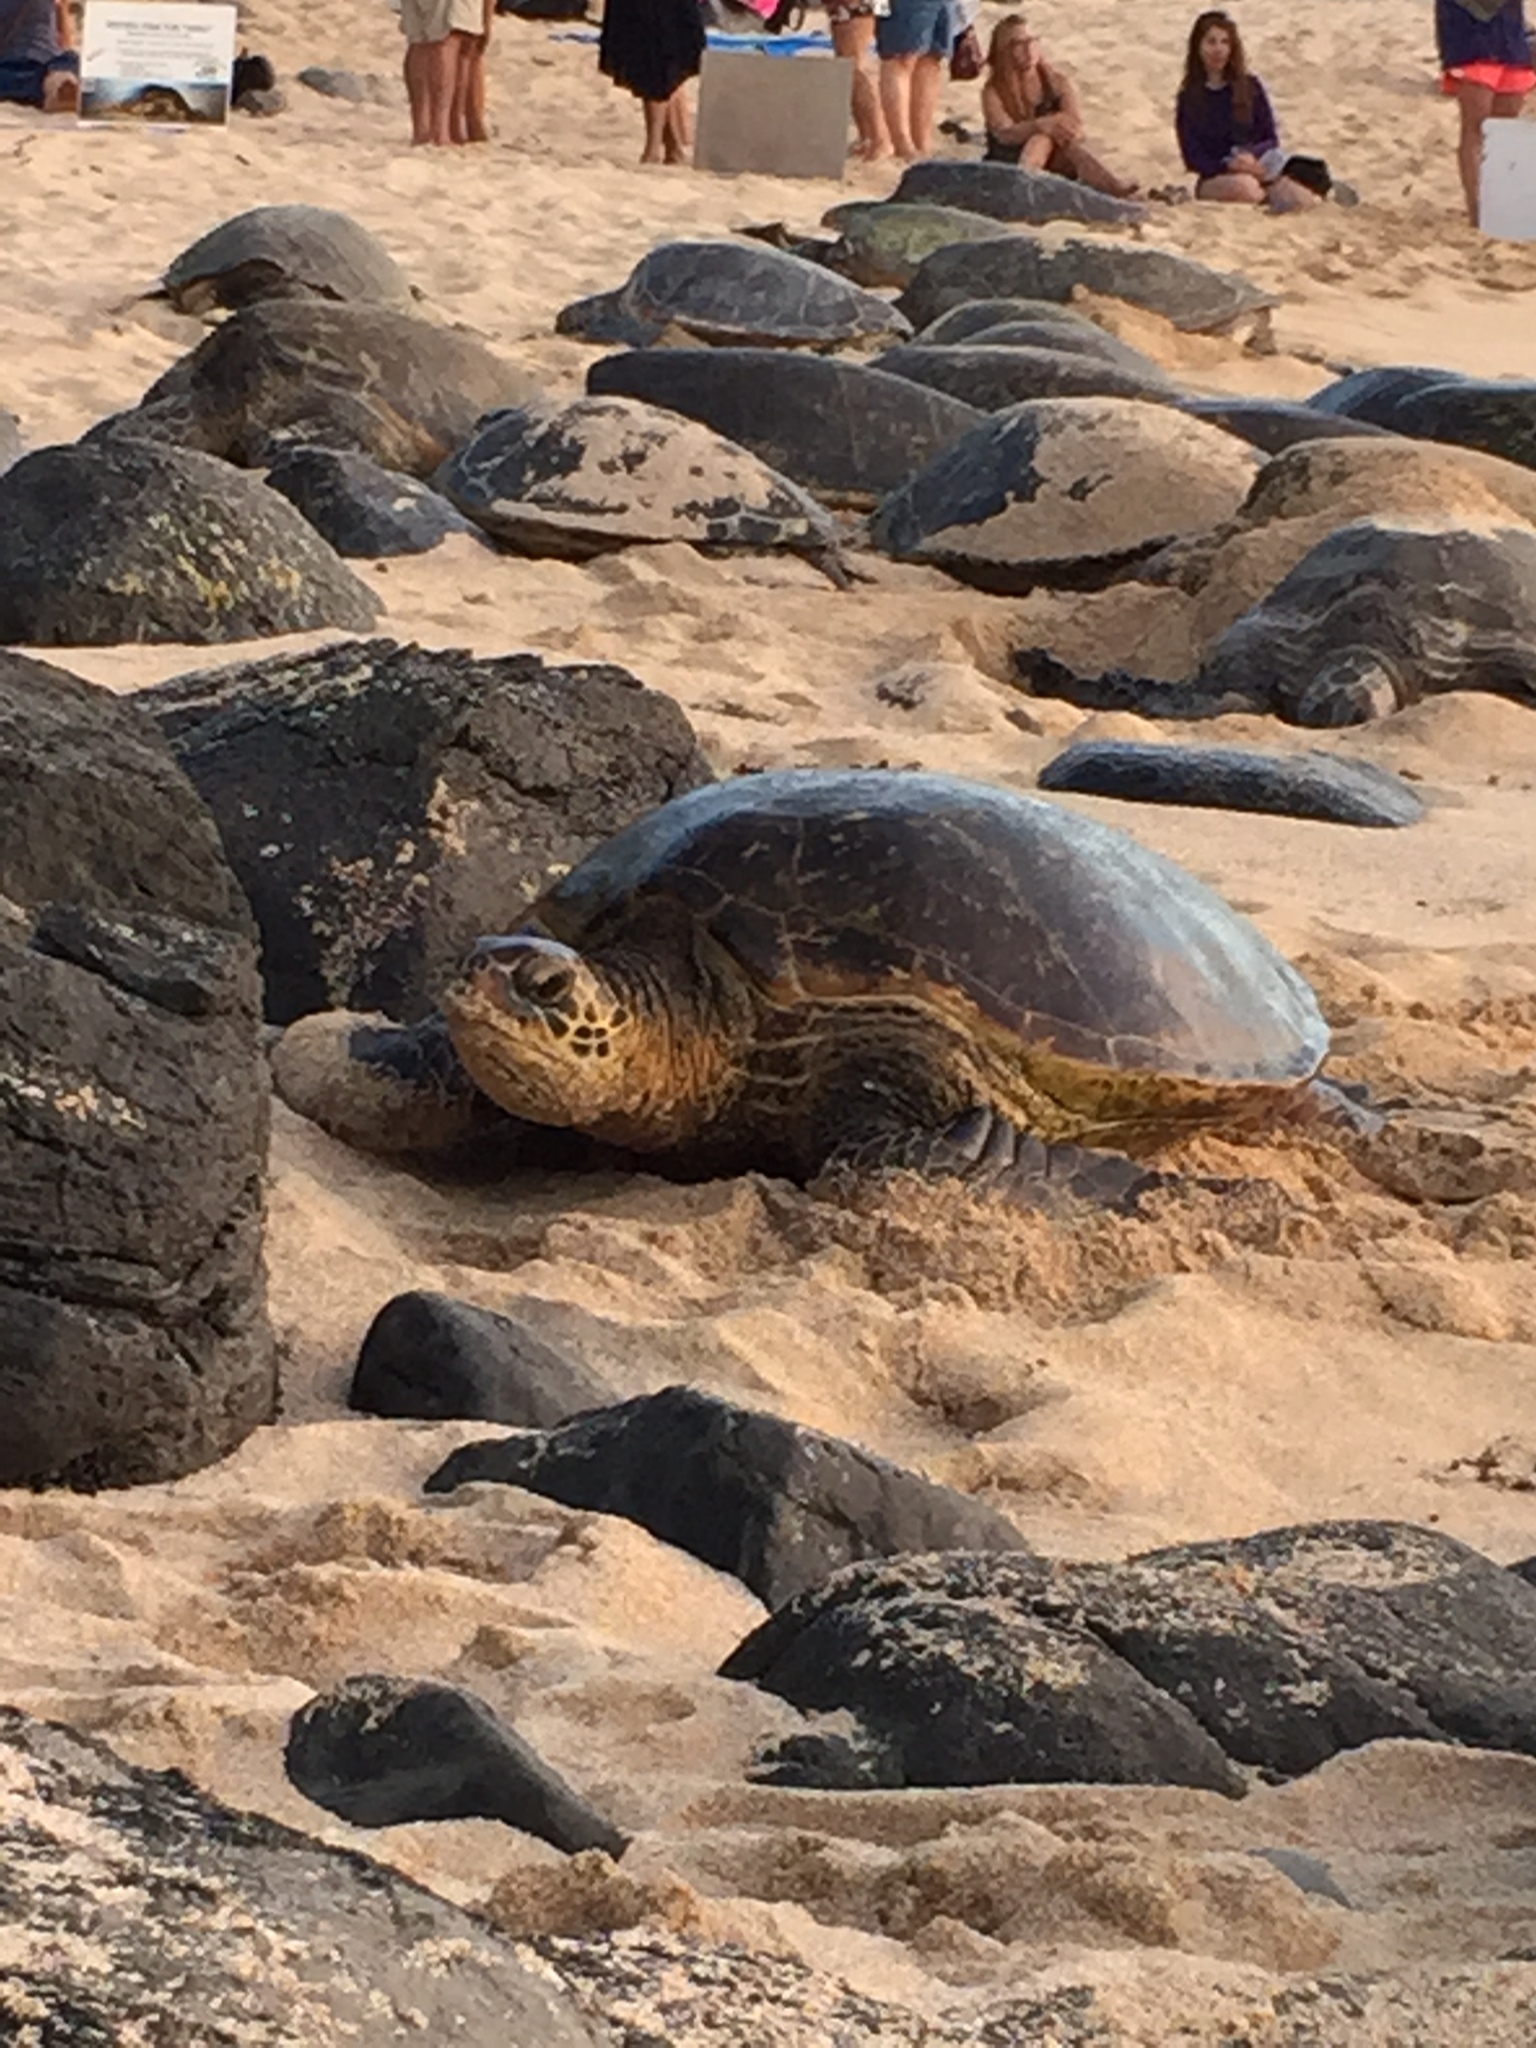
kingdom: Animalia
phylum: Chordata
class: Testudines
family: Cheloniidae
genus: Chelonia
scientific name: Chelonia mydas
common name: Green turtle
